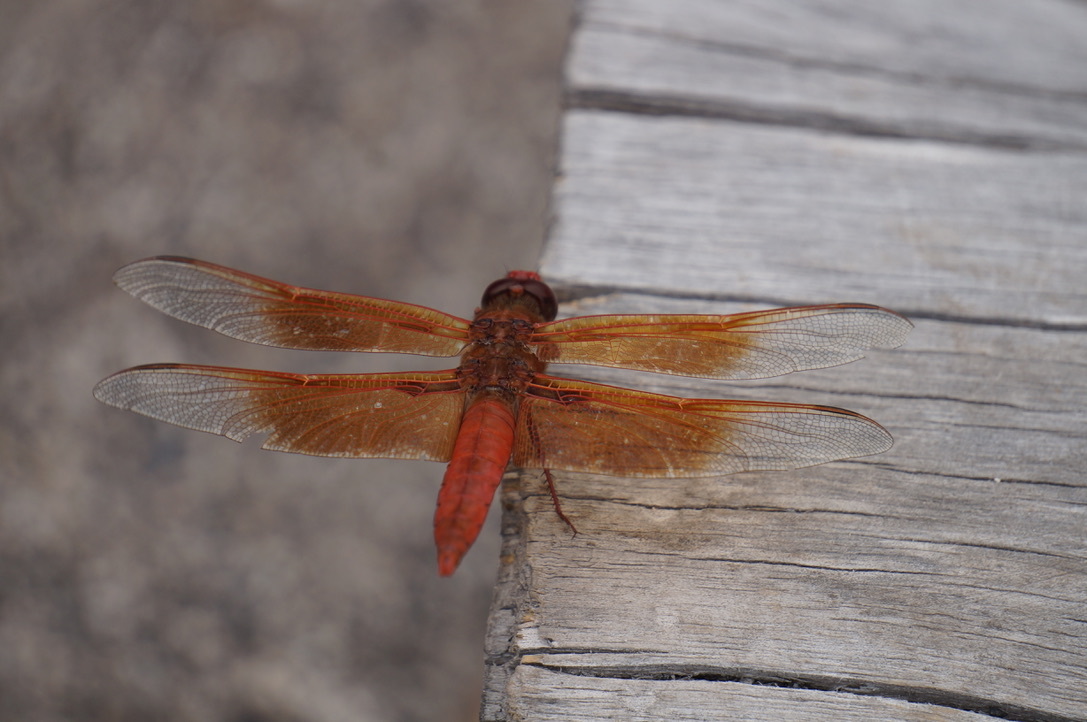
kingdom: Animalia
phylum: Arthropoda
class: Insecta
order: Odonata
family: Libellulidae
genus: Libellula
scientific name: Libellula saturata
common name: Flame skimmer
